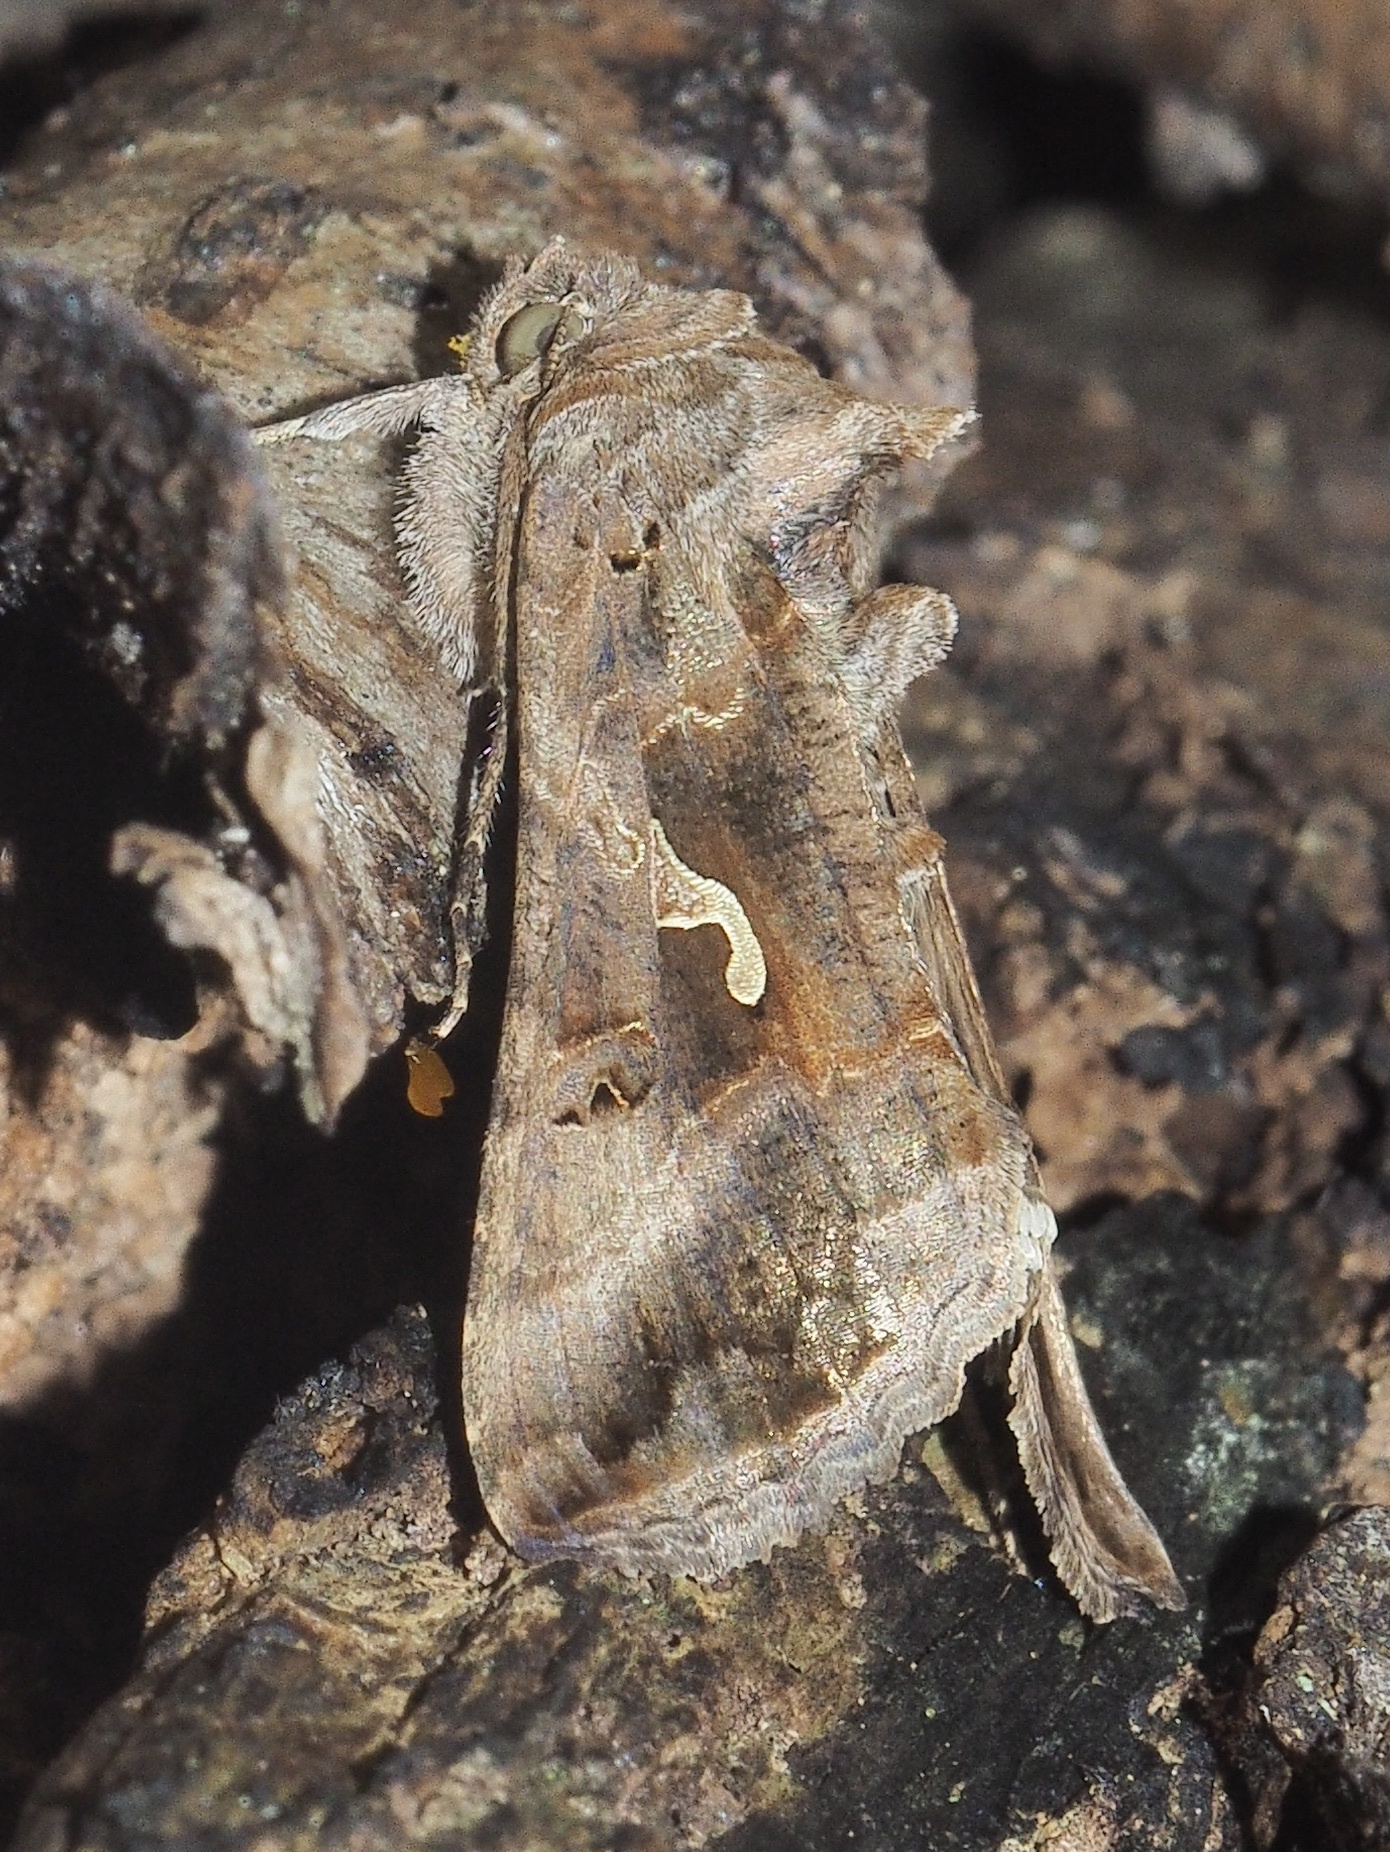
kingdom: Animalia
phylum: Arthropoda
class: Insecta
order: Lepidoptera
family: Noctuidae
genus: Autographa
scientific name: Autographa gamma
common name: Silver y
